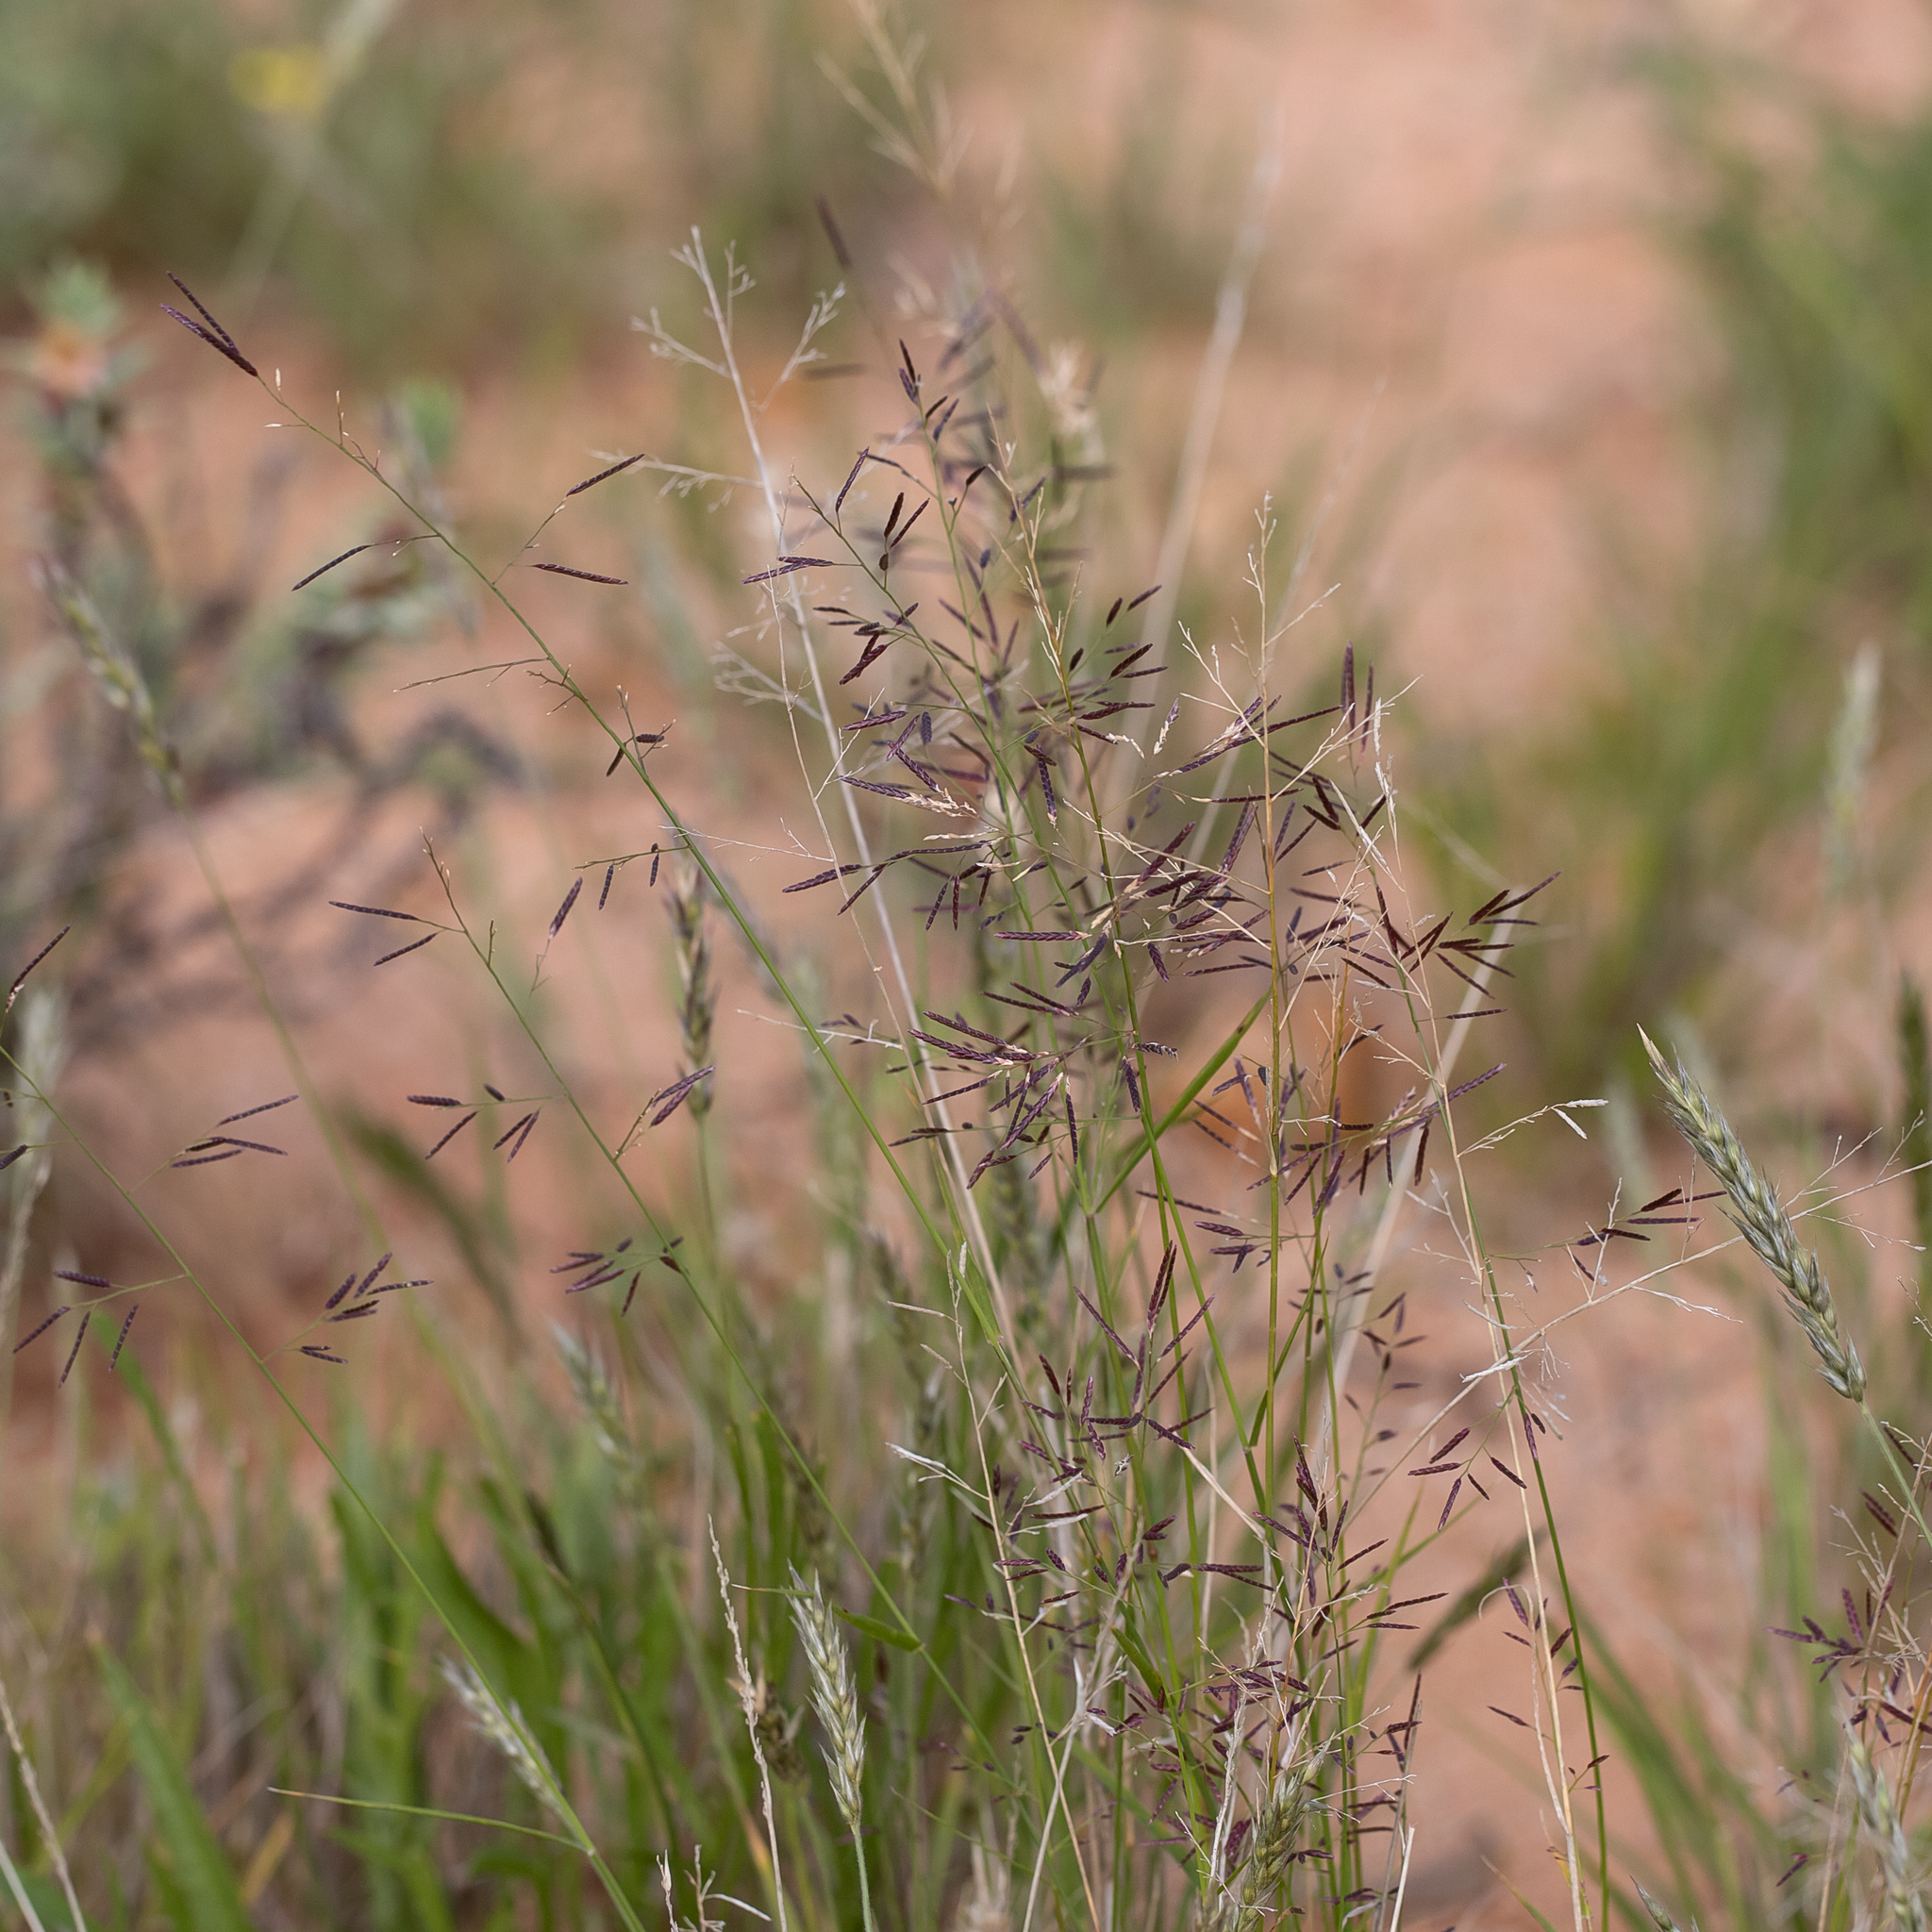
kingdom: Plantae
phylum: Tracheophyta
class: Liliopsida
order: Poales
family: Poaceae
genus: Eragrostis
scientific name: Eragrostis lacunaria
